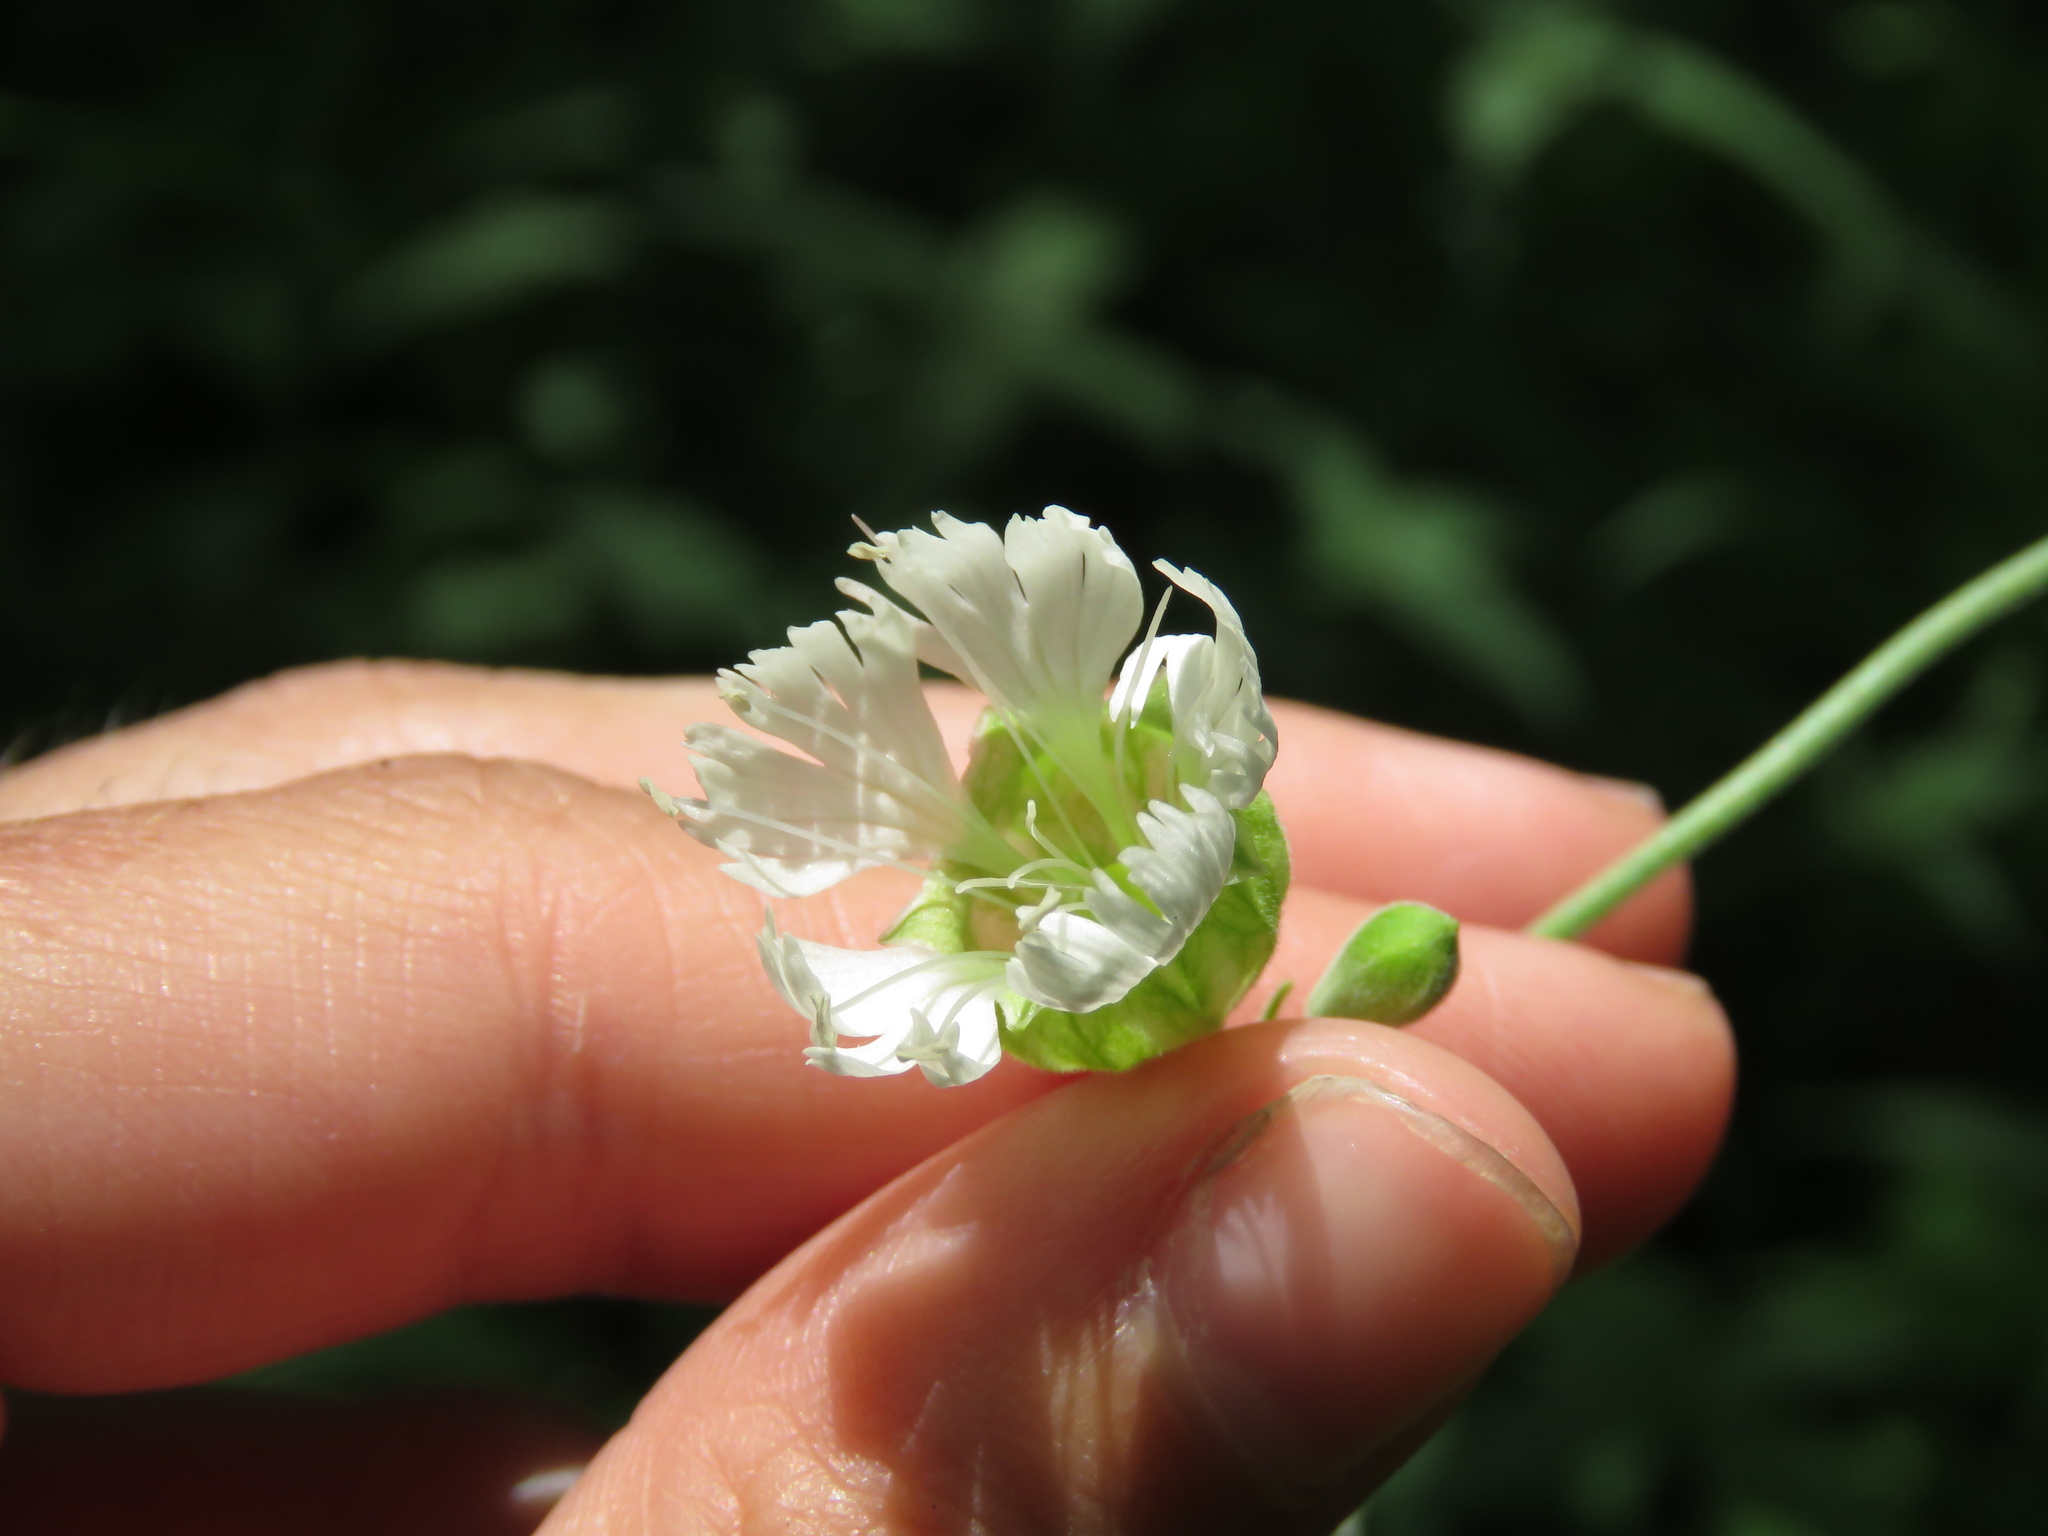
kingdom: Plantae
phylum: Tracheophyta
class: Magnoliopsida
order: Caryophyllales
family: Caryophyllaceae
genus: Silene
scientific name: Silene stellata
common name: Starry campion
